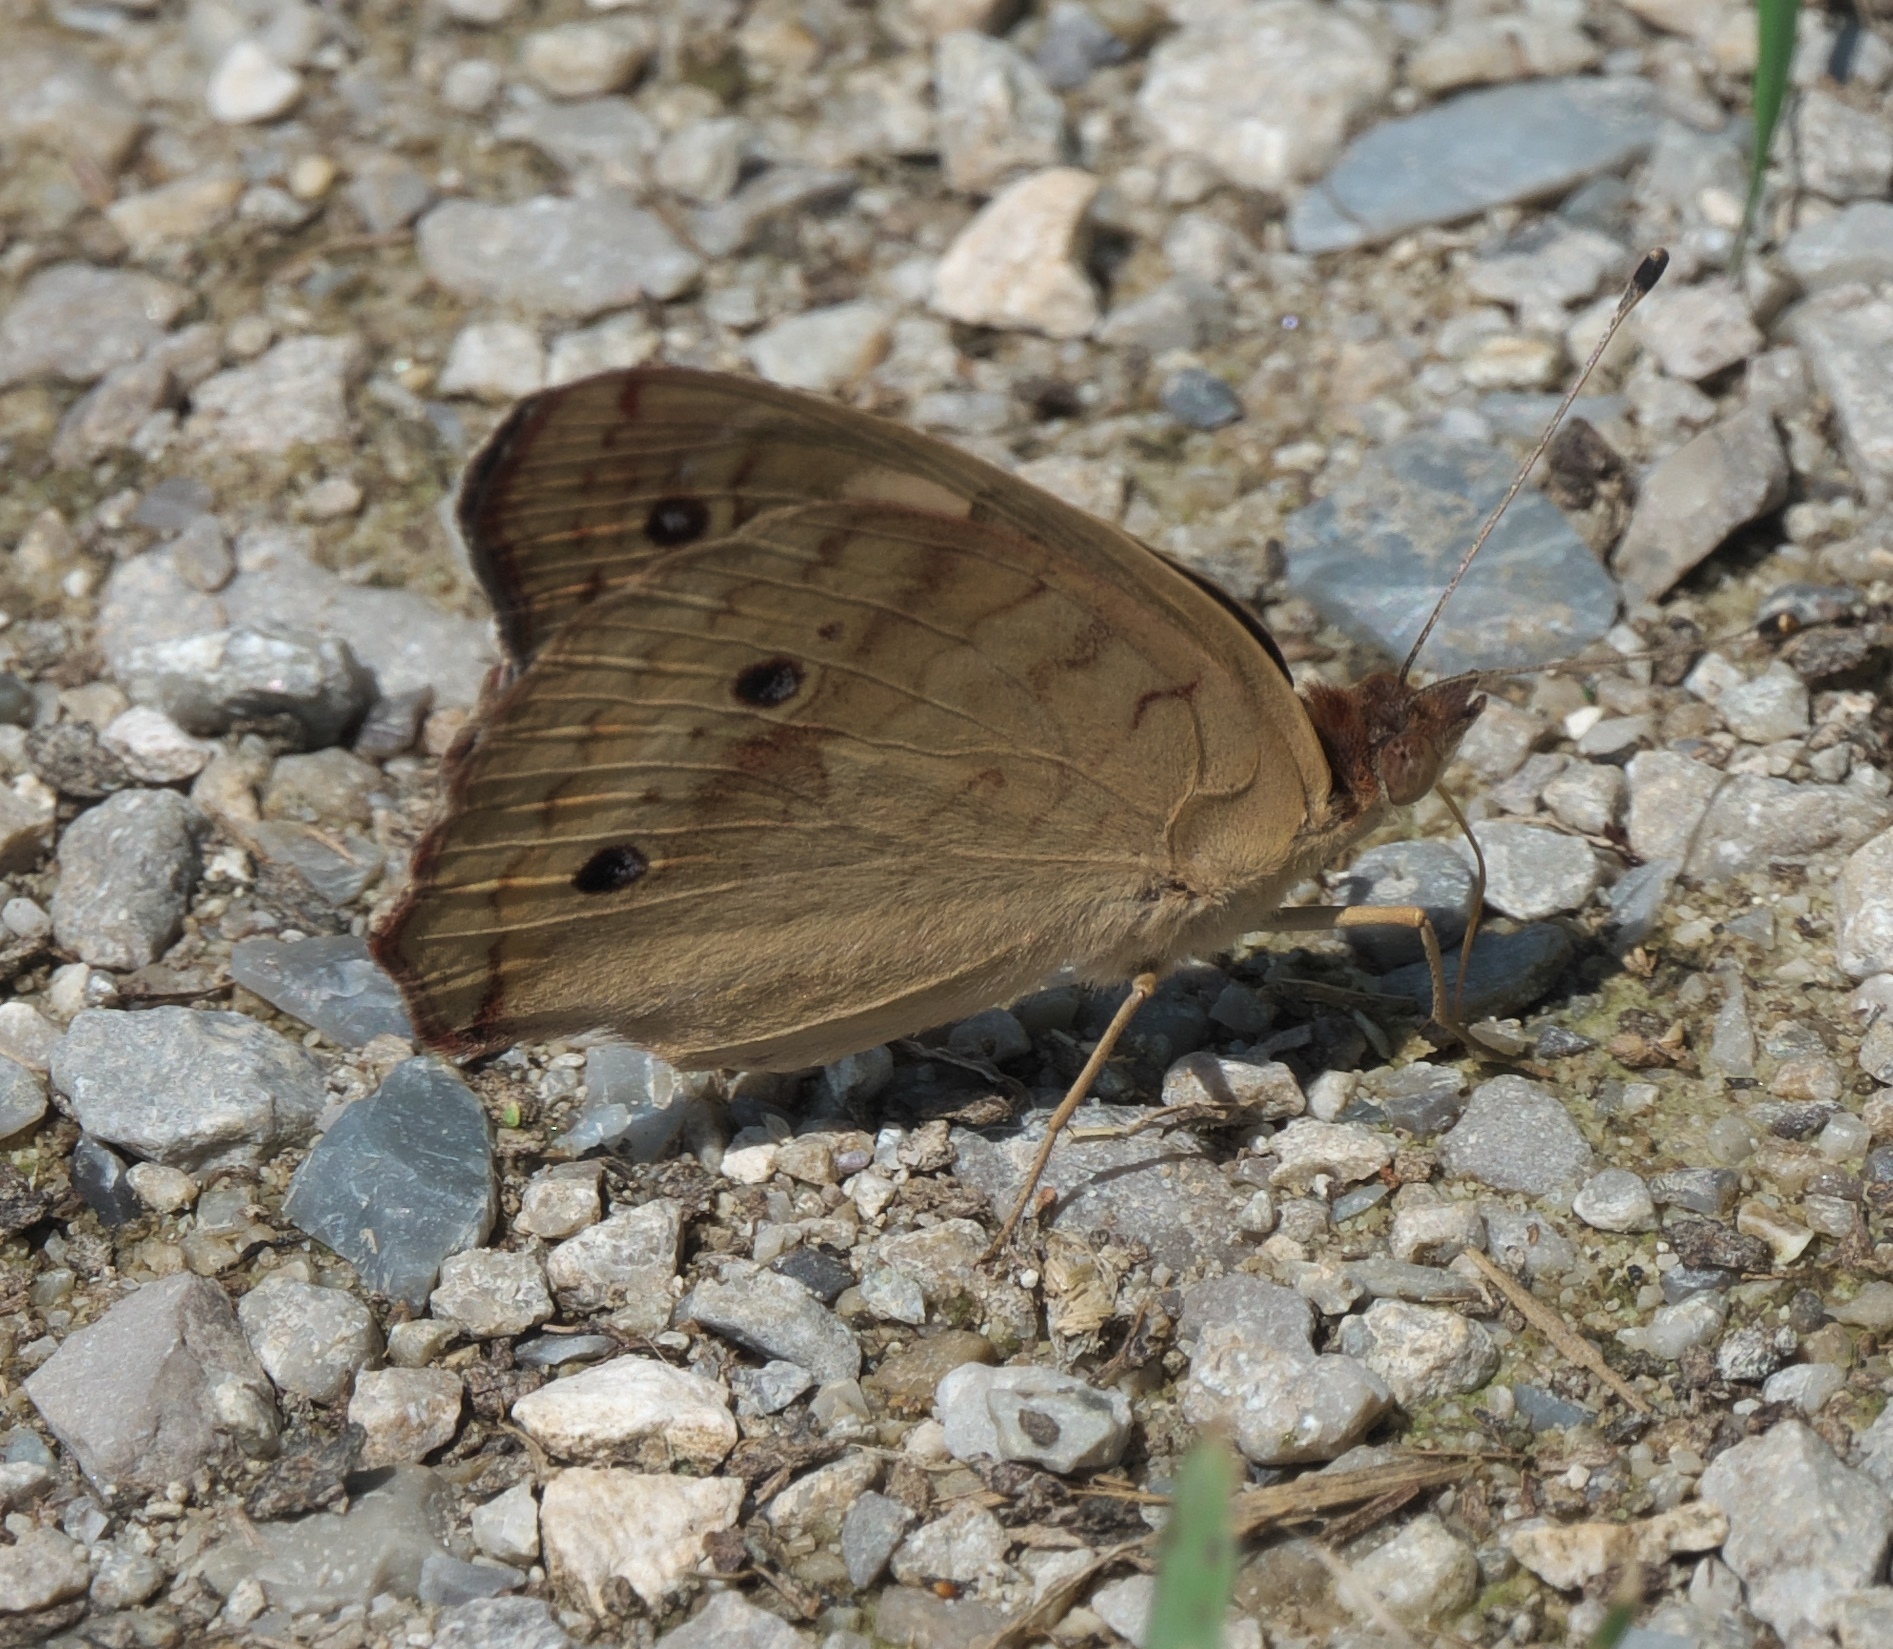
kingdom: Animalia
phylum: Arthropoda
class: Insecta
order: Lepidoptera
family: Nymphalidae
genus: Junonia
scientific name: Junonia coenia
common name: Common buckeye
